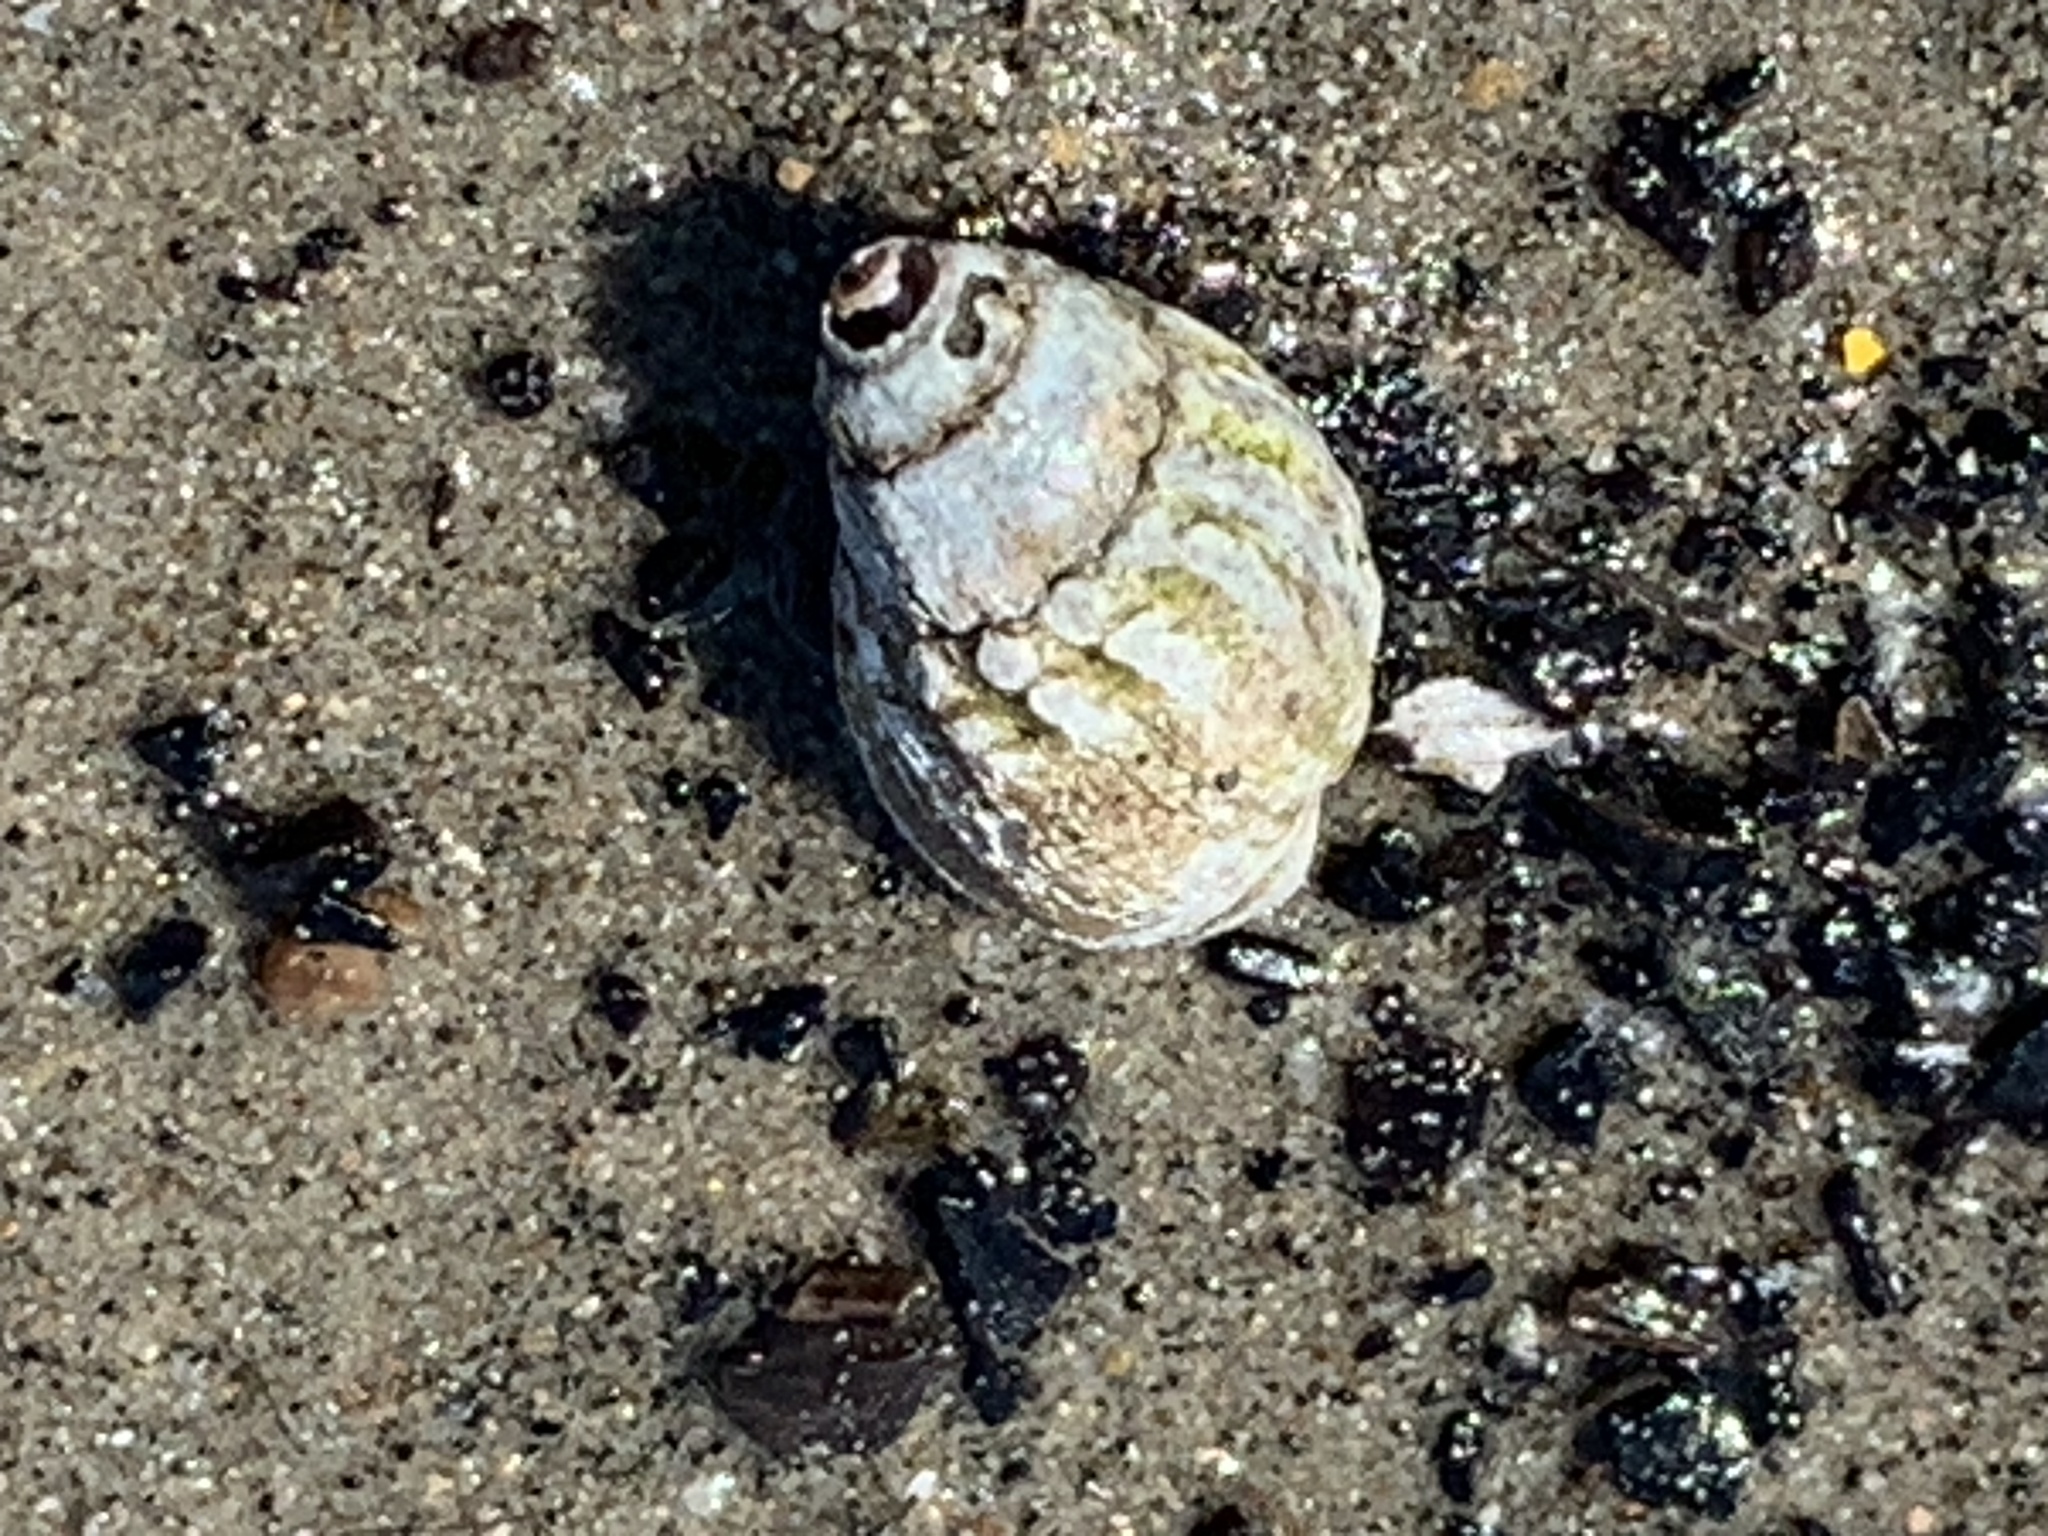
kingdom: Animalia
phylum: Mollusca
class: Gastropoda
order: Neogastropoda
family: Nassariidae
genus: Nassarius
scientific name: Nassarius pauperatus
